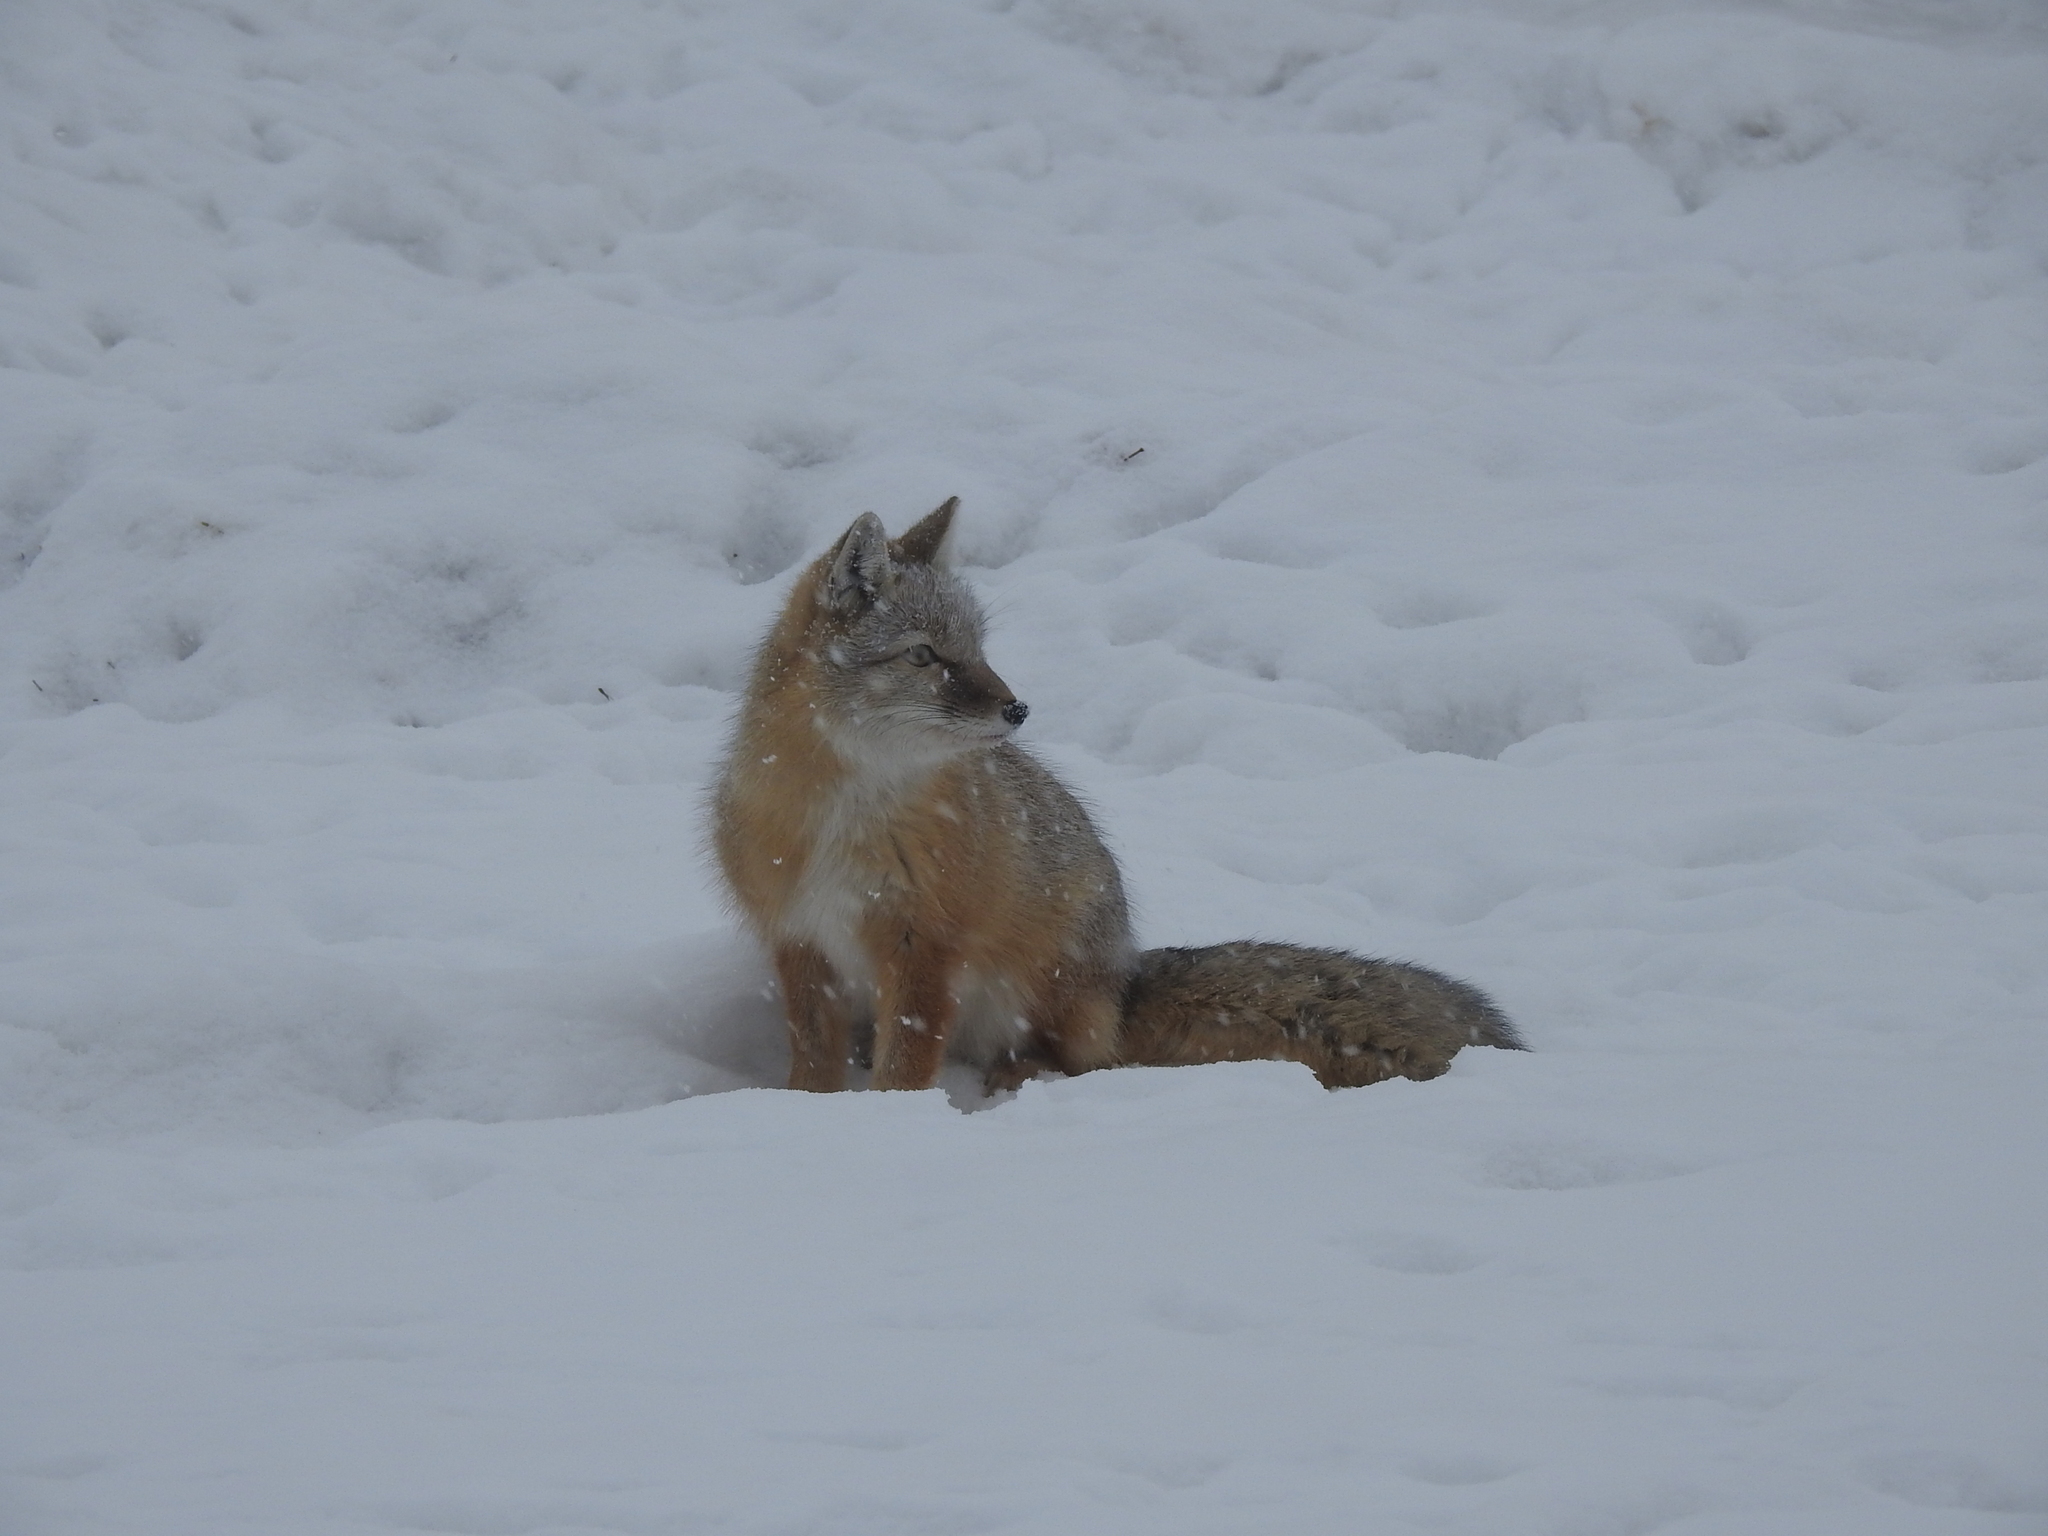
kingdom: Animalia
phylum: Chordata
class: Mammalia
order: Carnivora
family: Canidae
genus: Vulpes
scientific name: Vulpes corsac
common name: Corsac fox
